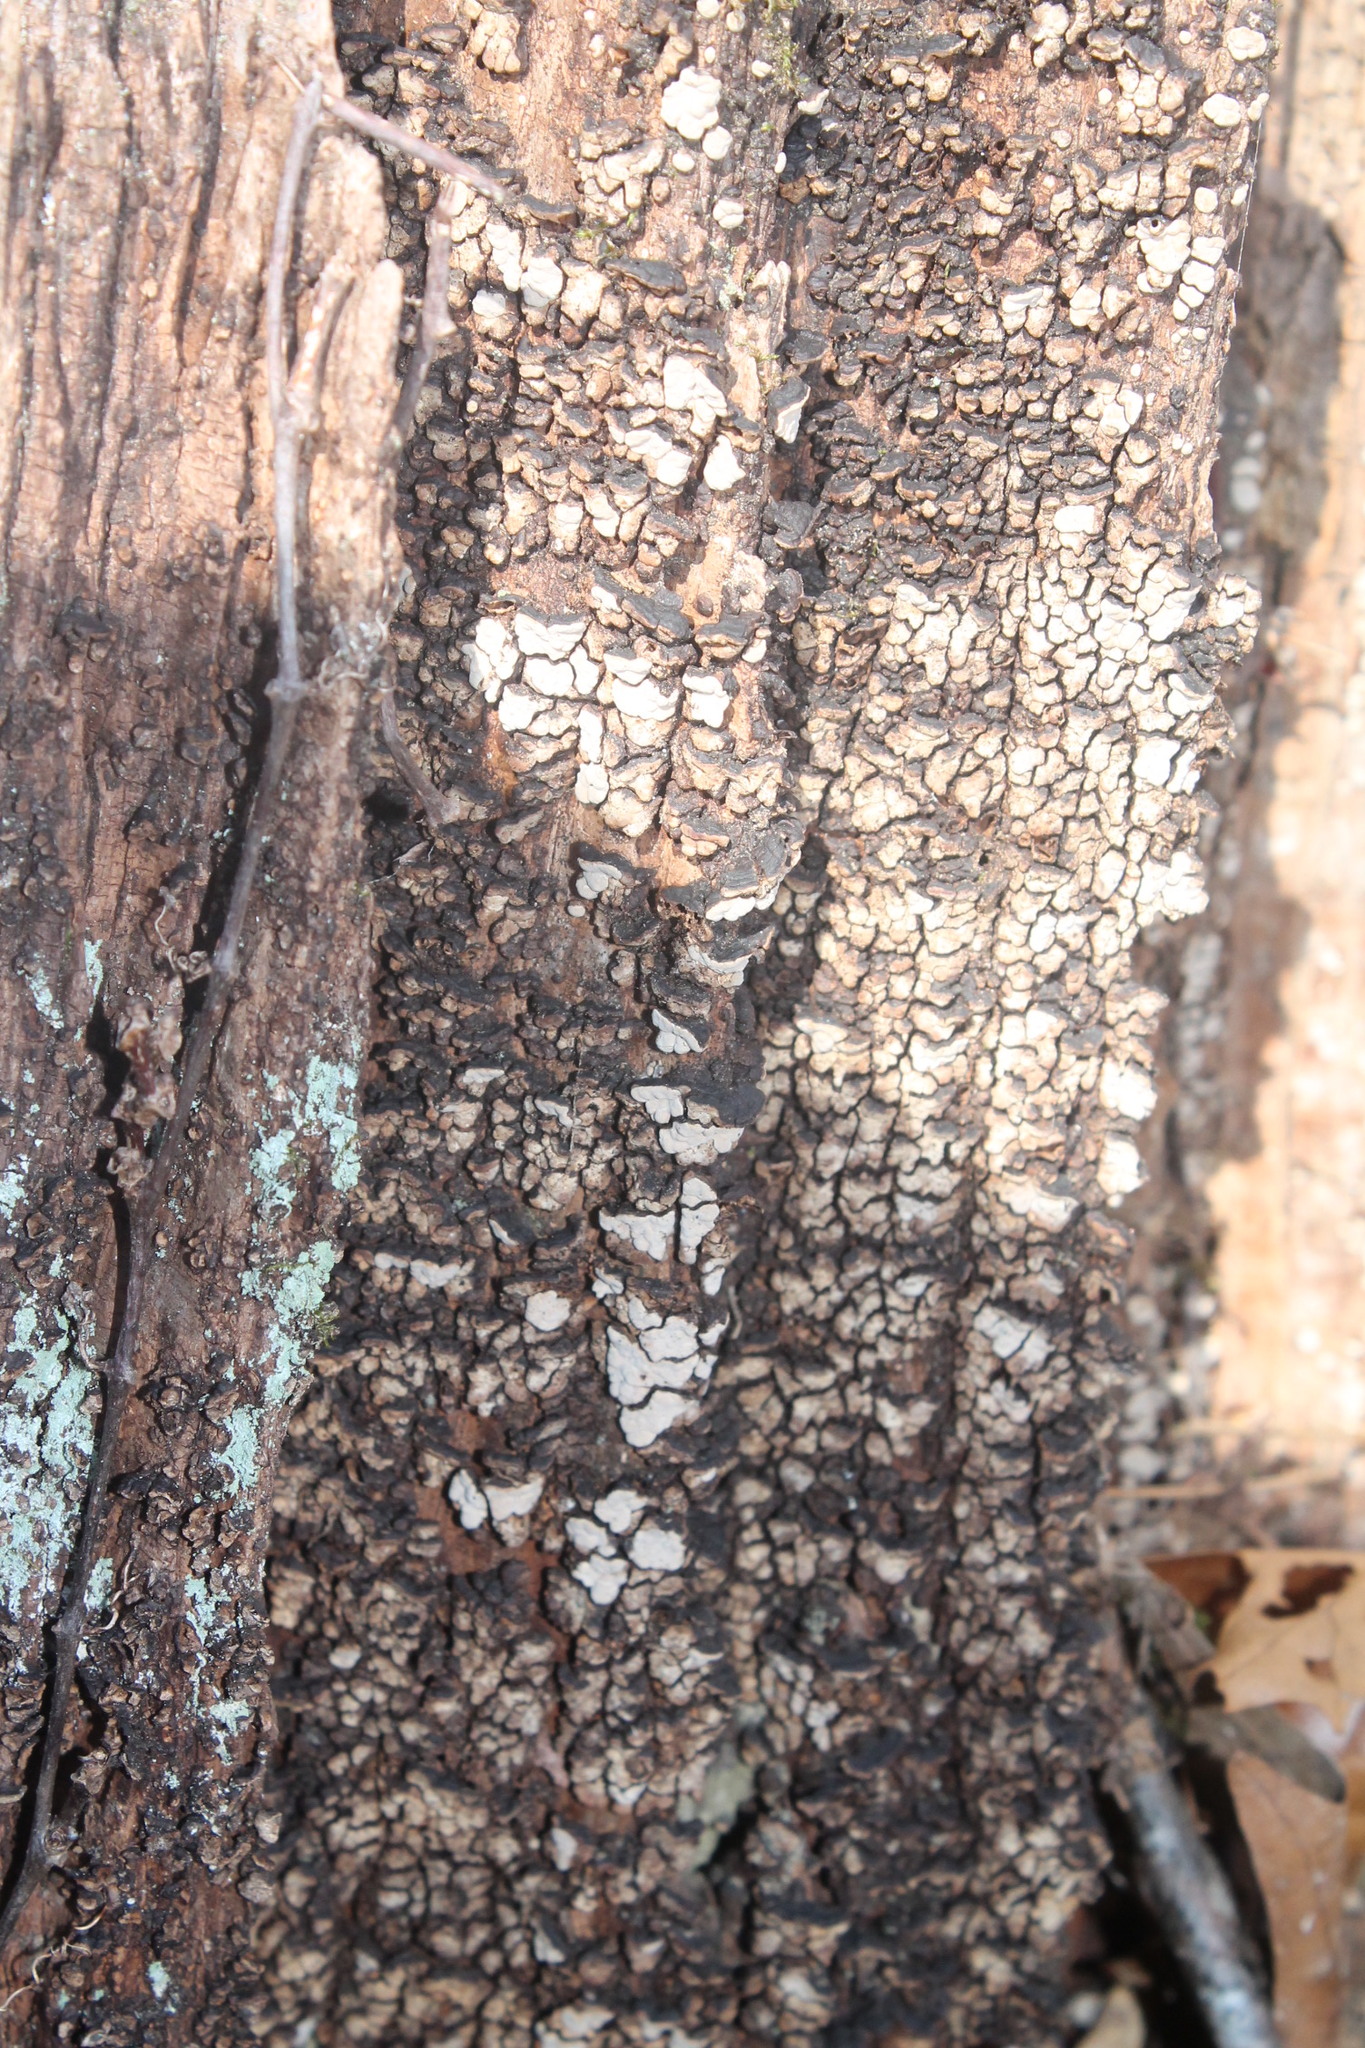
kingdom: Fungi
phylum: Basidiomycota
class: Agaricomycetes
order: Russulales
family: Stereaceae
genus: Xylobolus
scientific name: Xylobolus frustulatus
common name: Ceramic parchment
